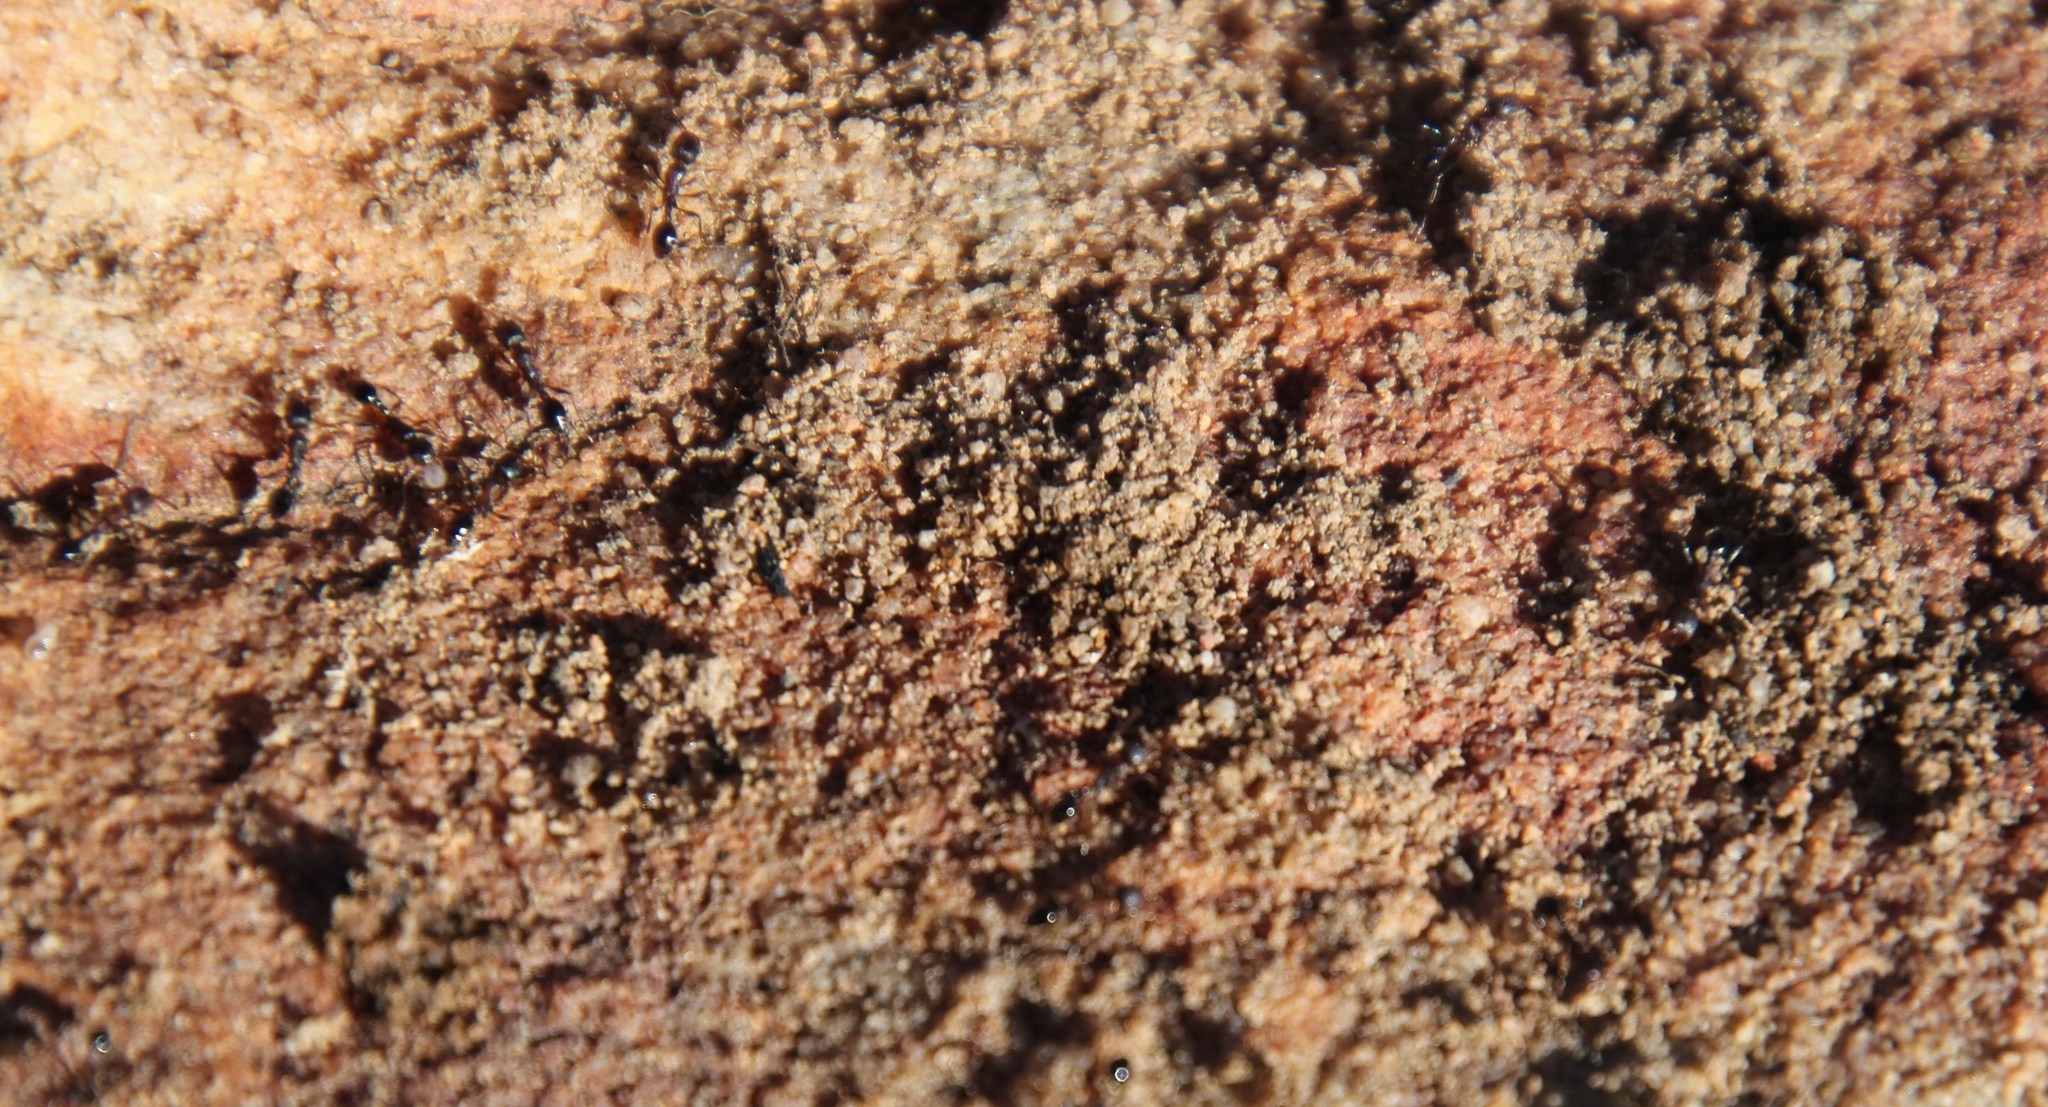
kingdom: Animalia
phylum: Arthropoda
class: Insecta
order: Hymenoptera
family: Formicidae
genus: Tetramorium
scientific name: Tetramorium sericeiventre
